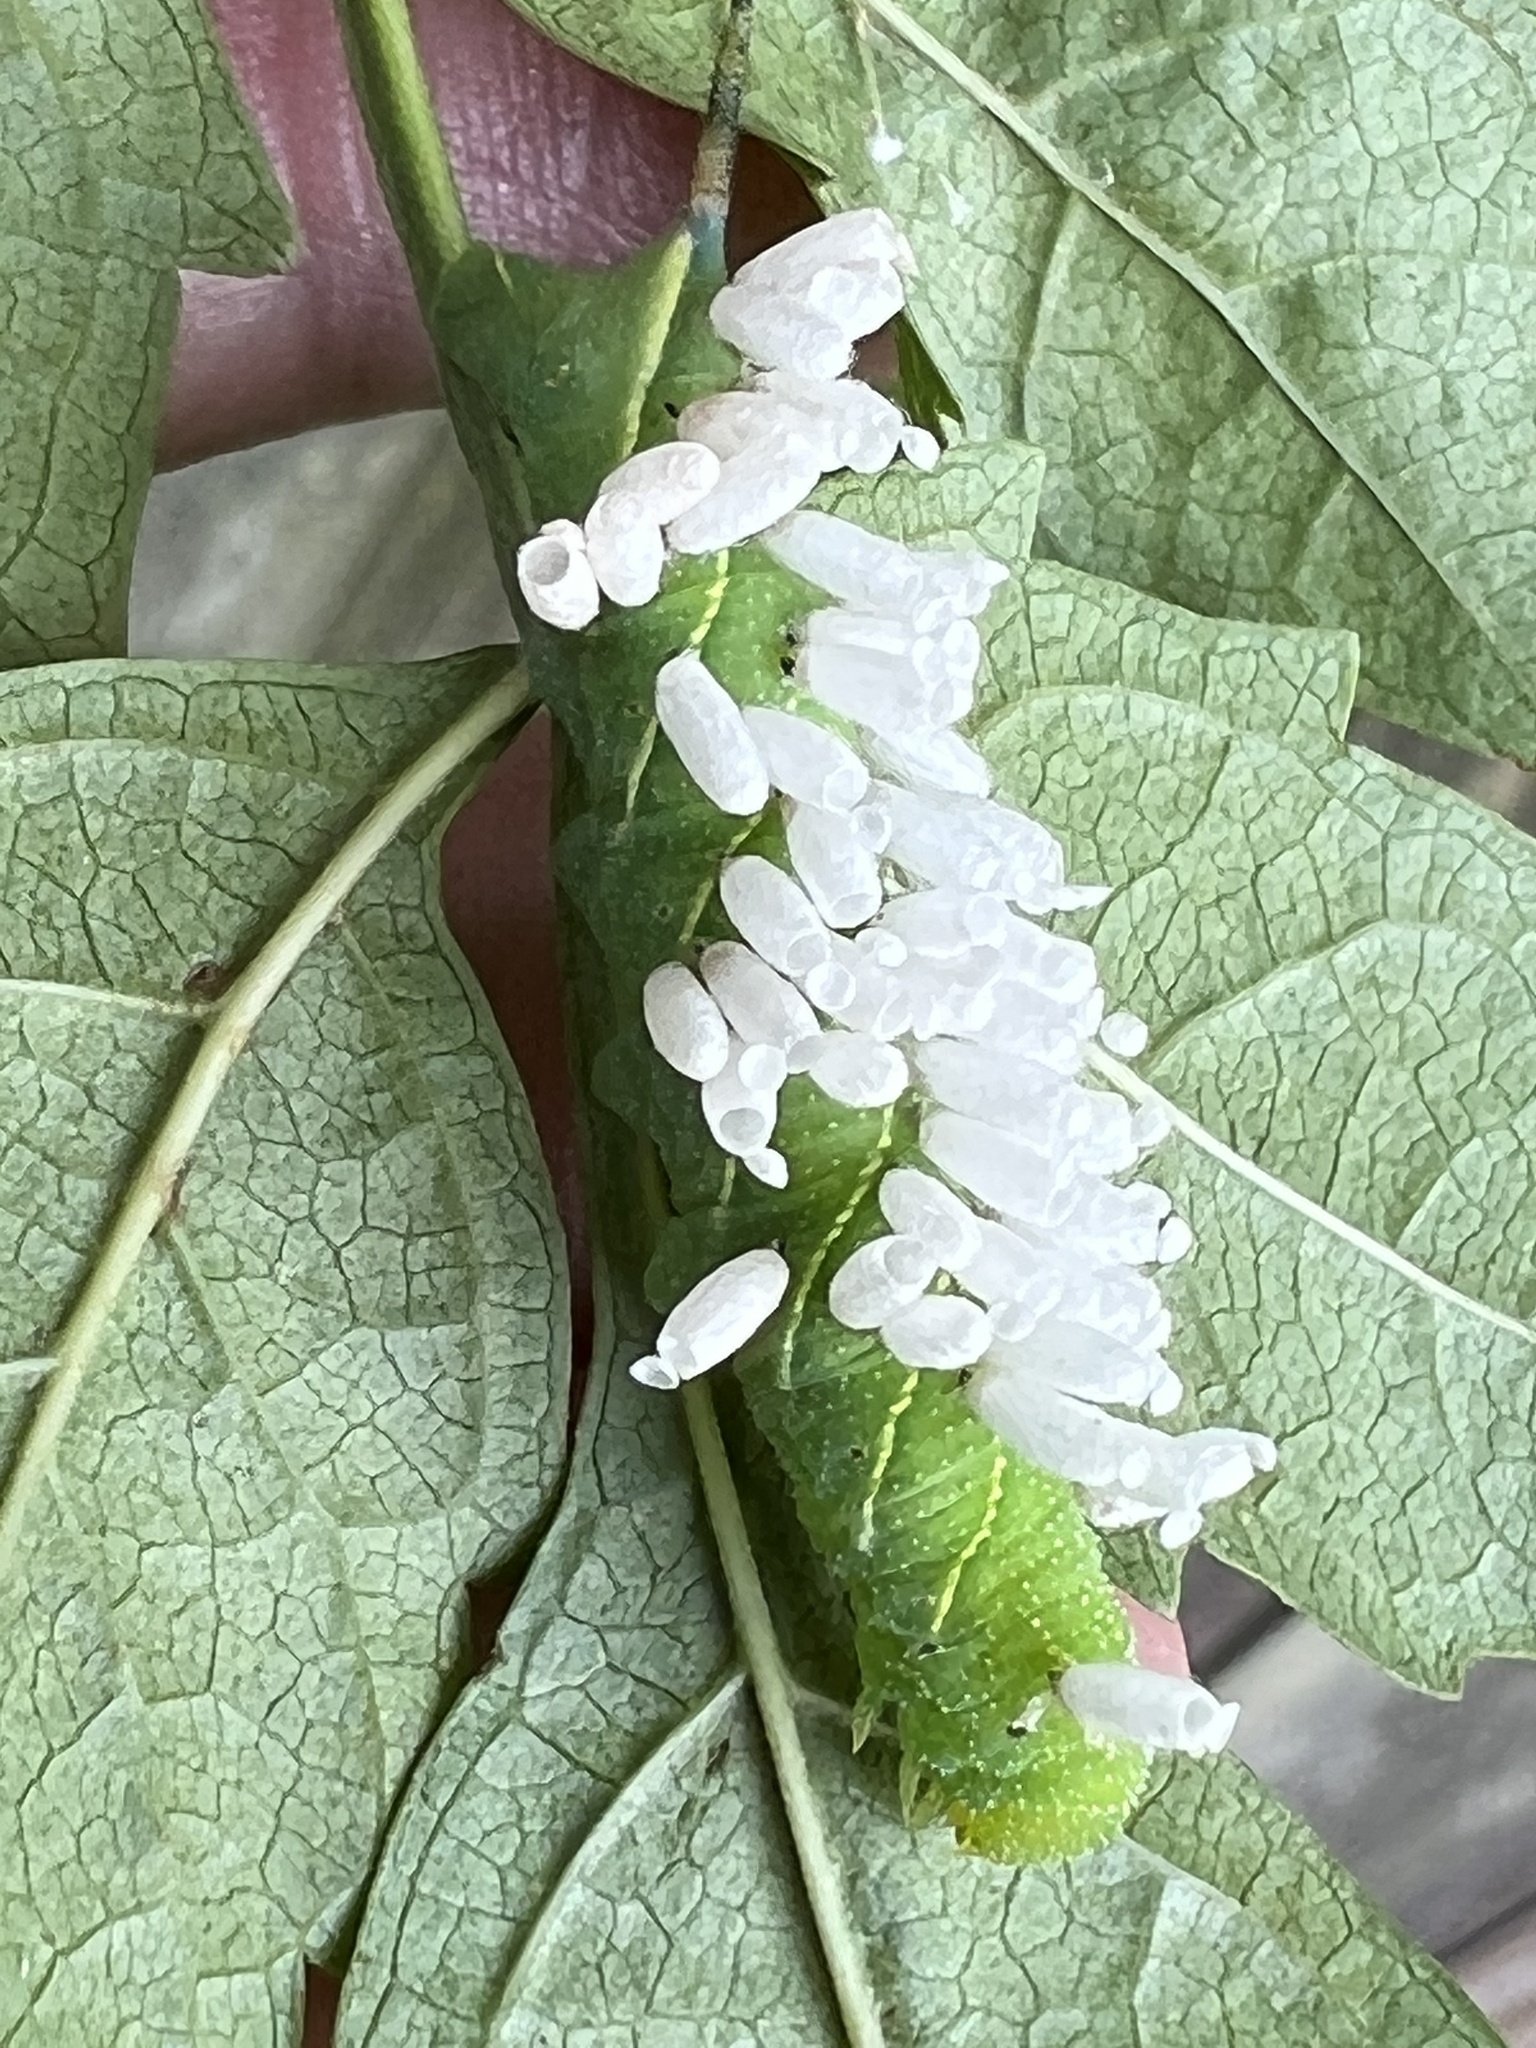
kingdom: Animalia
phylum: Arthropoda
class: Insecta
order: Lepidoptera
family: Sphingidae
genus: Paratrea
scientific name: Paratrea plebeja
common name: Plebian sphinx
